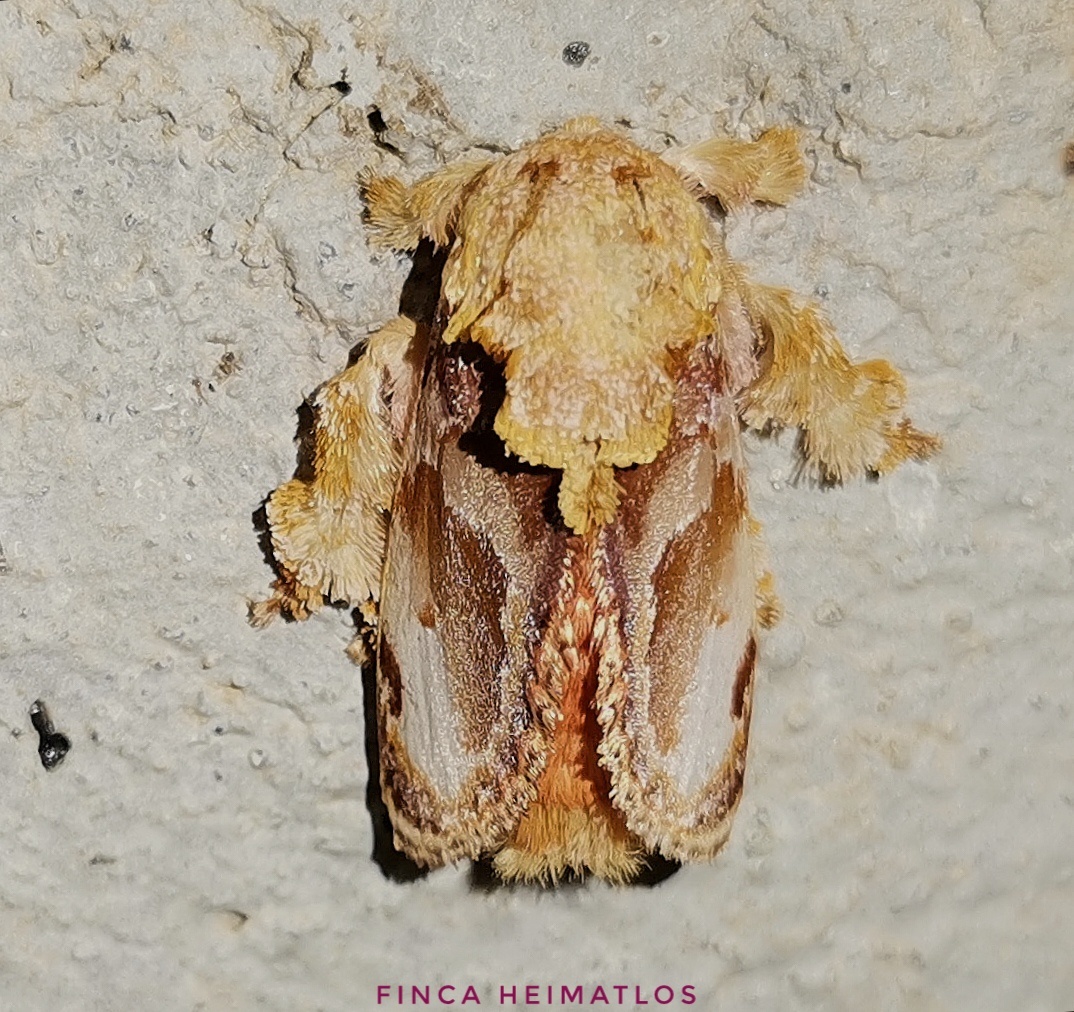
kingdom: Animalia
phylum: Arthropoda
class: Insecta
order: Lepidoptera
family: Limacodidae
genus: Euphobetron
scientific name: Euphobetron cypris
